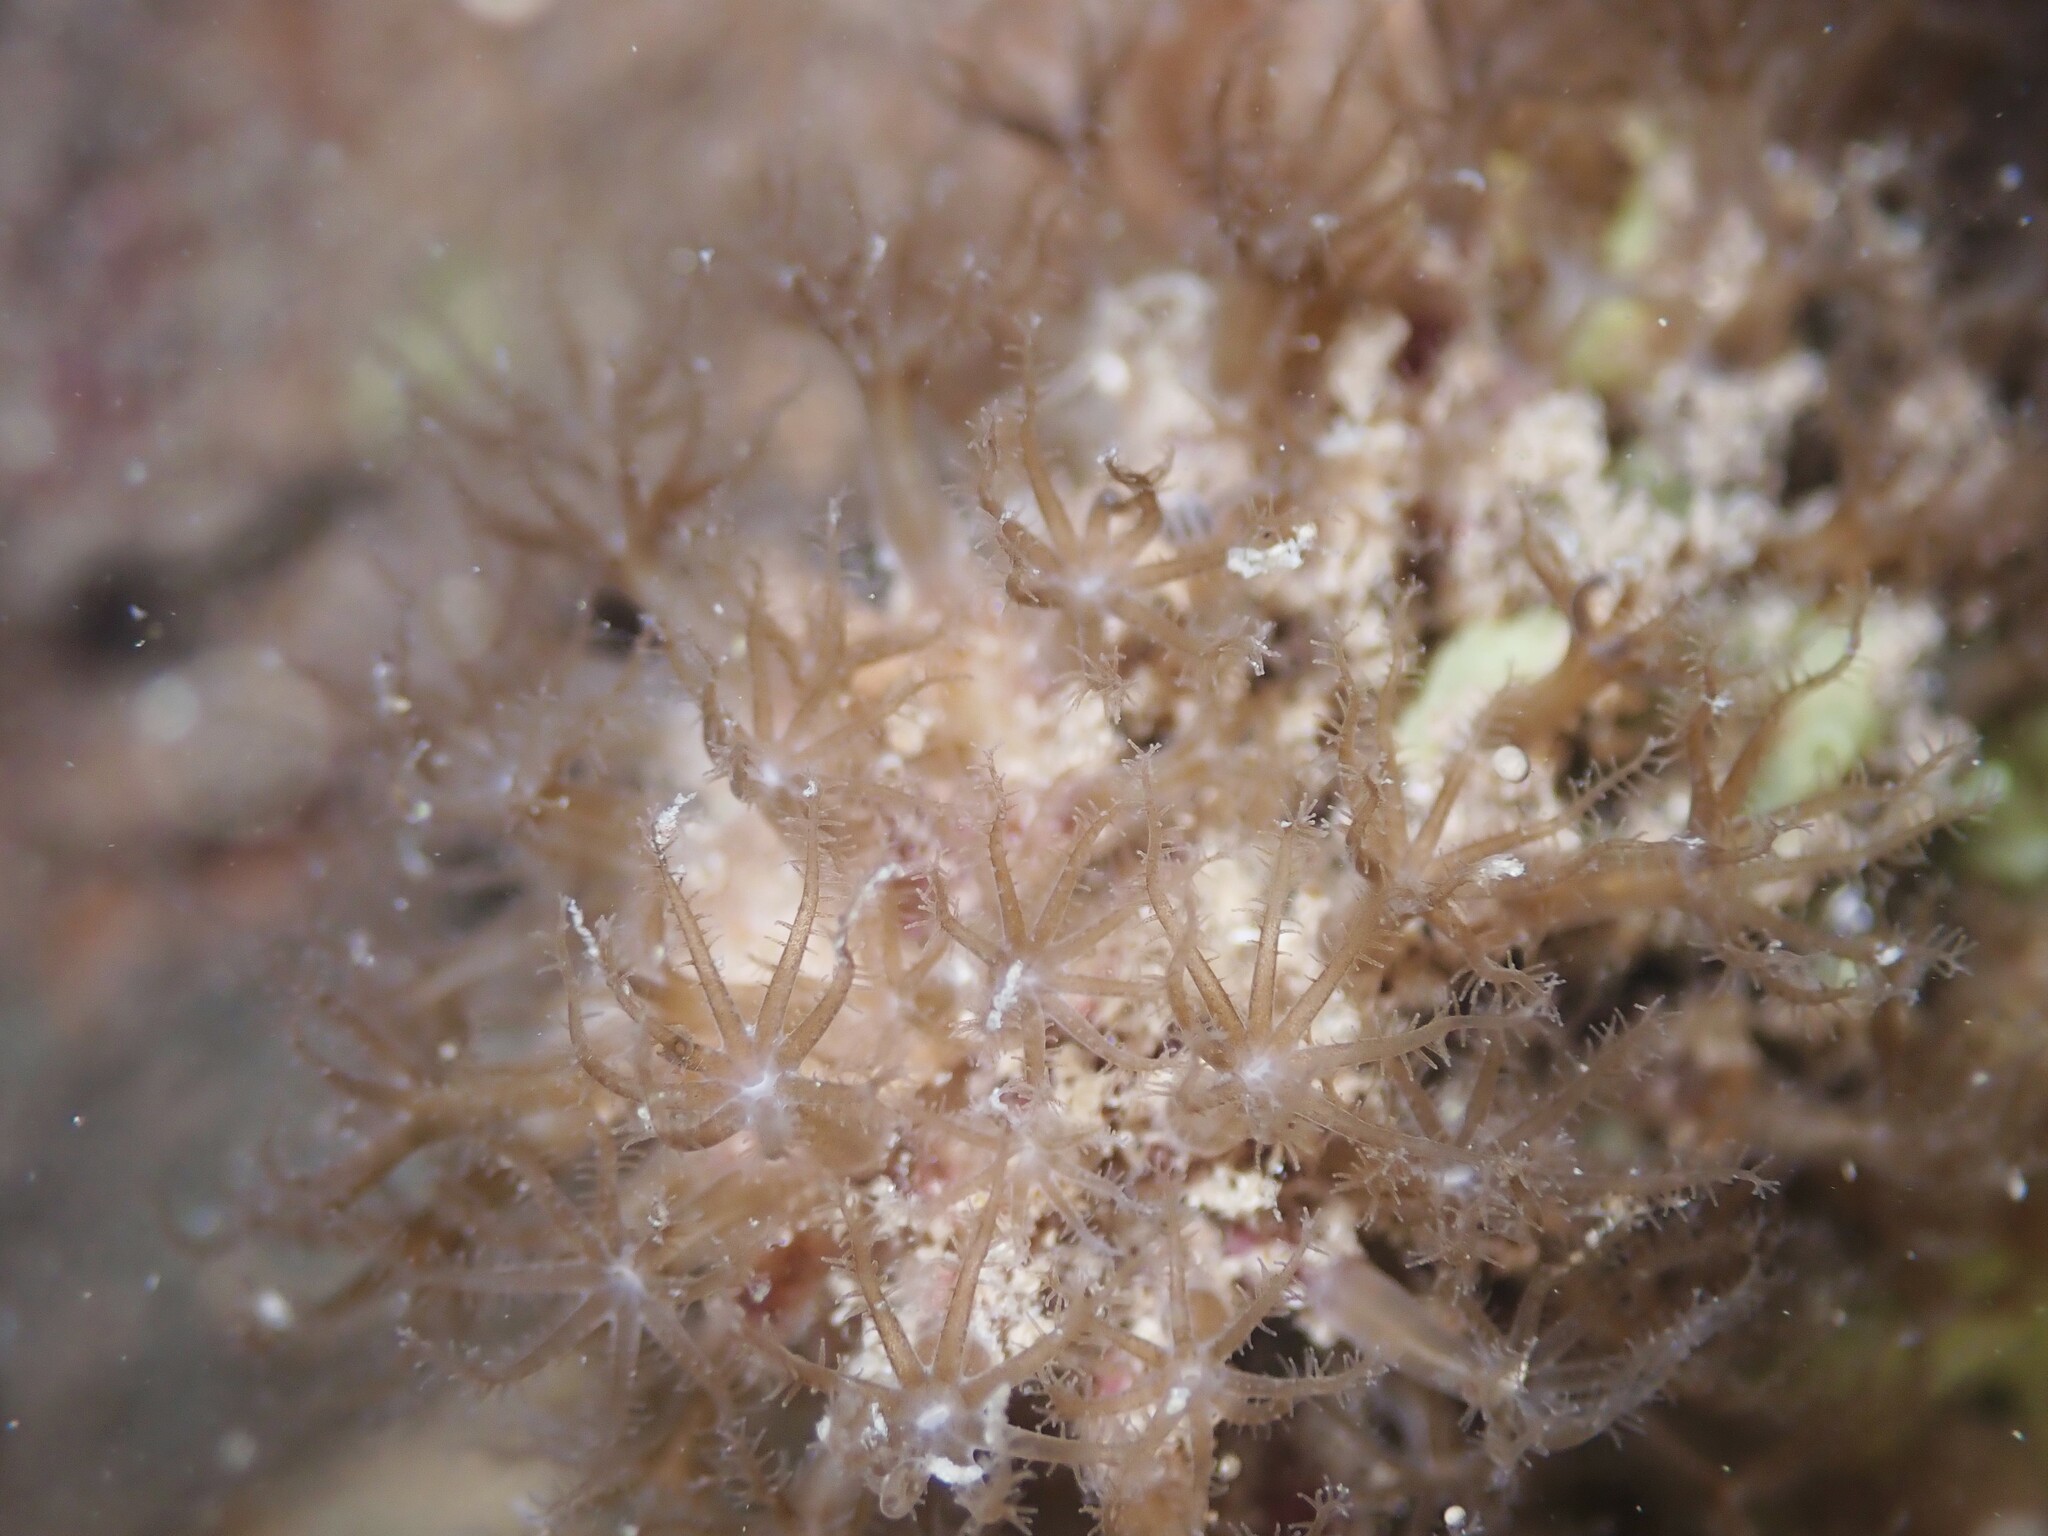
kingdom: Animalia
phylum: Cnidaria
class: Anthozoa
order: Malacalcyonacea
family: Clavulariidae
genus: Clavularia
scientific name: Clavularia novaezealandiae
